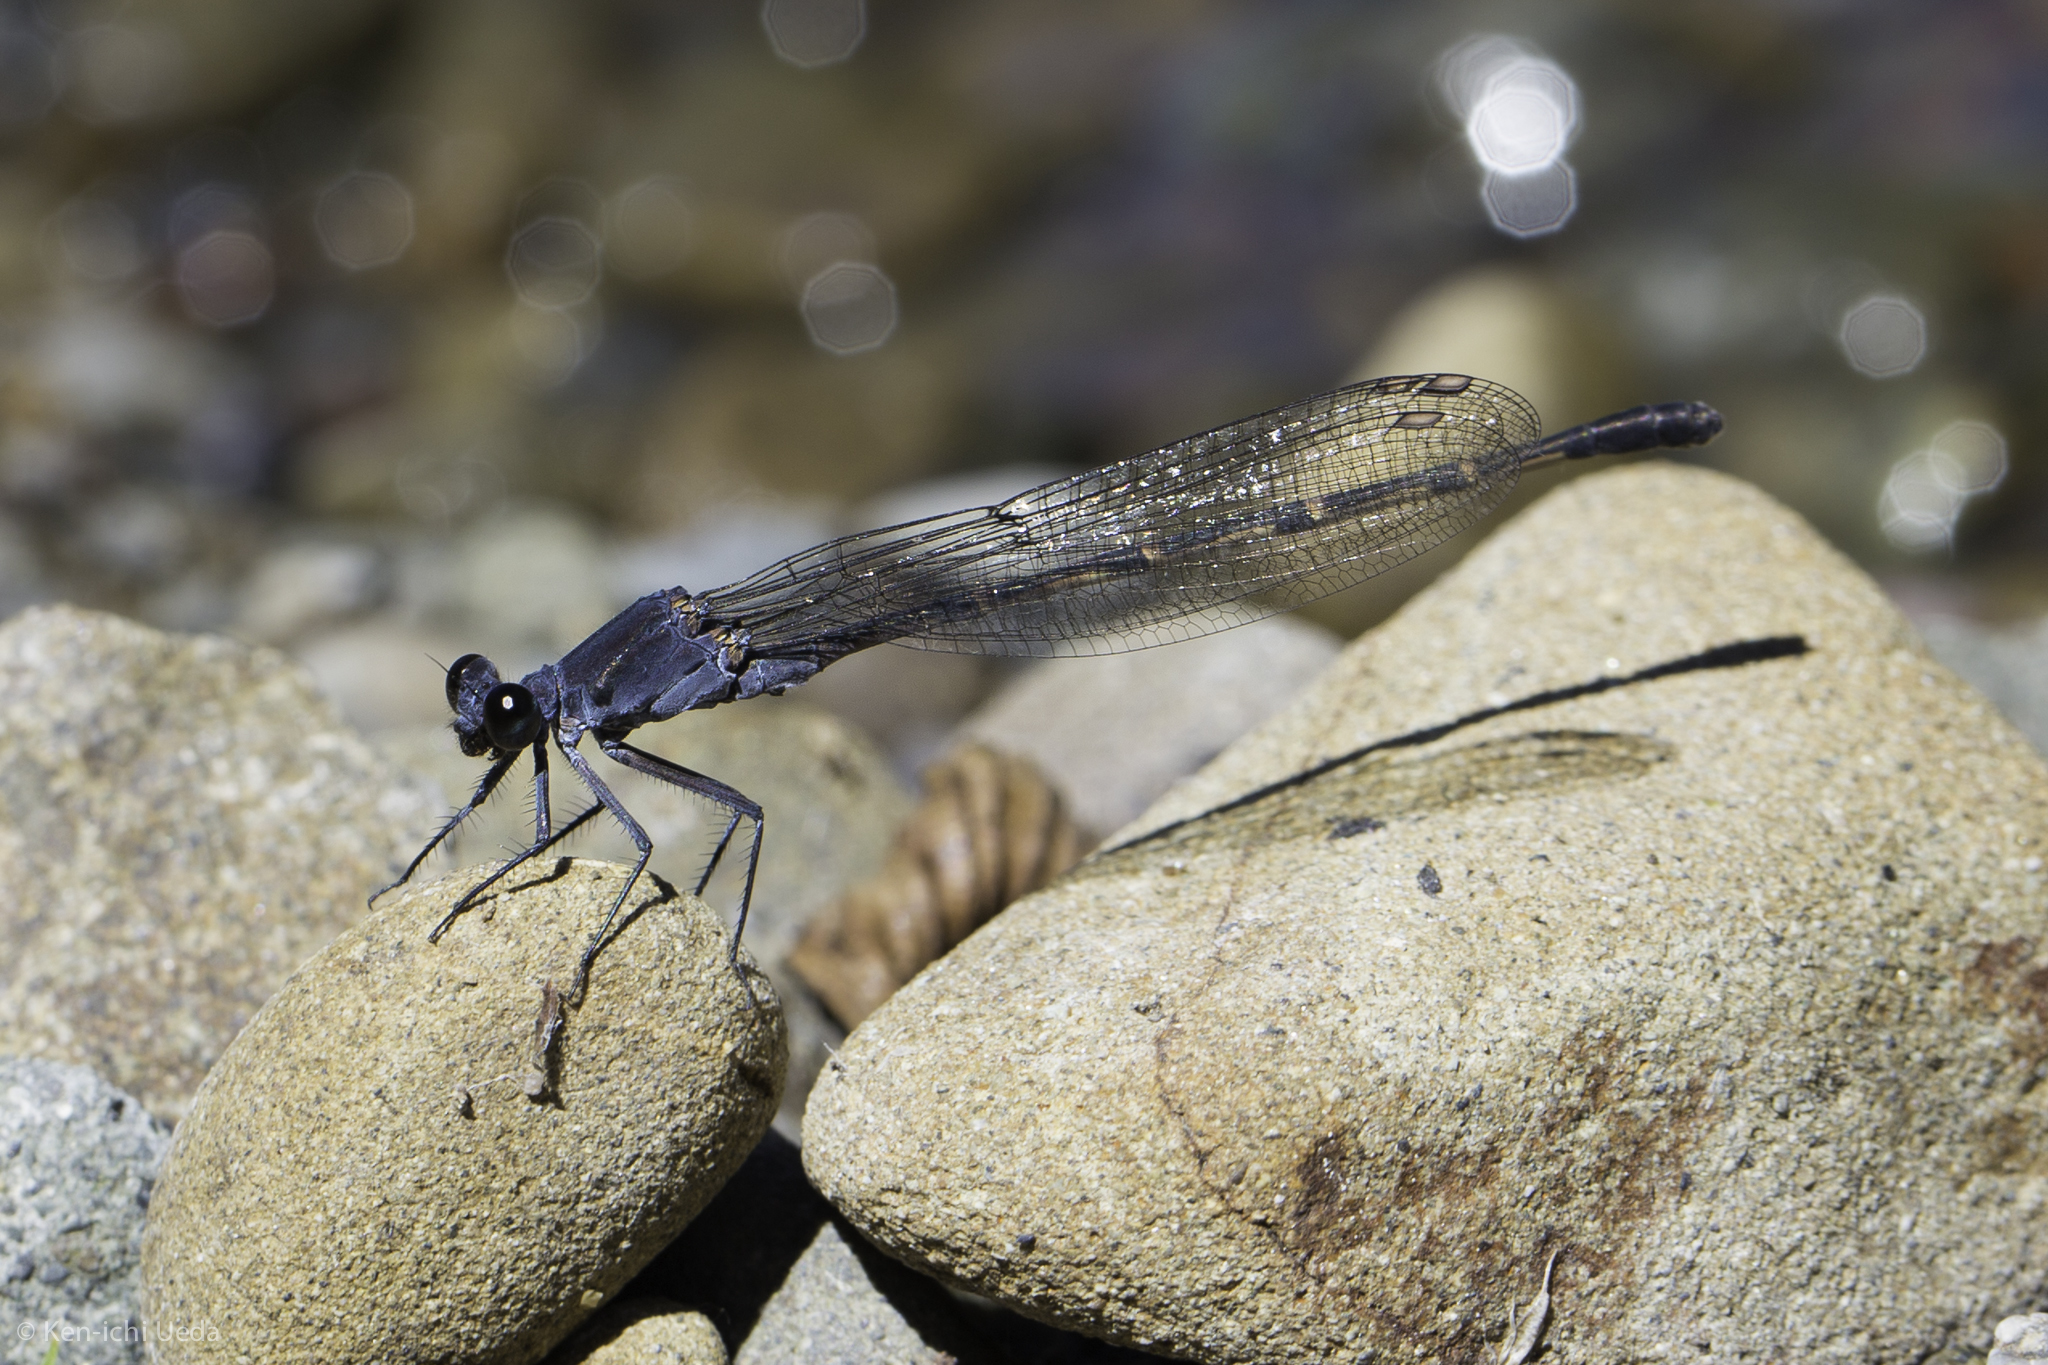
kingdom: Animalia
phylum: Arthropoda
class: Insecta
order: Odonata
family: Coenagrionidae
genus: Argia
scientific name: Argia lugens
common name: Sooty dancer
